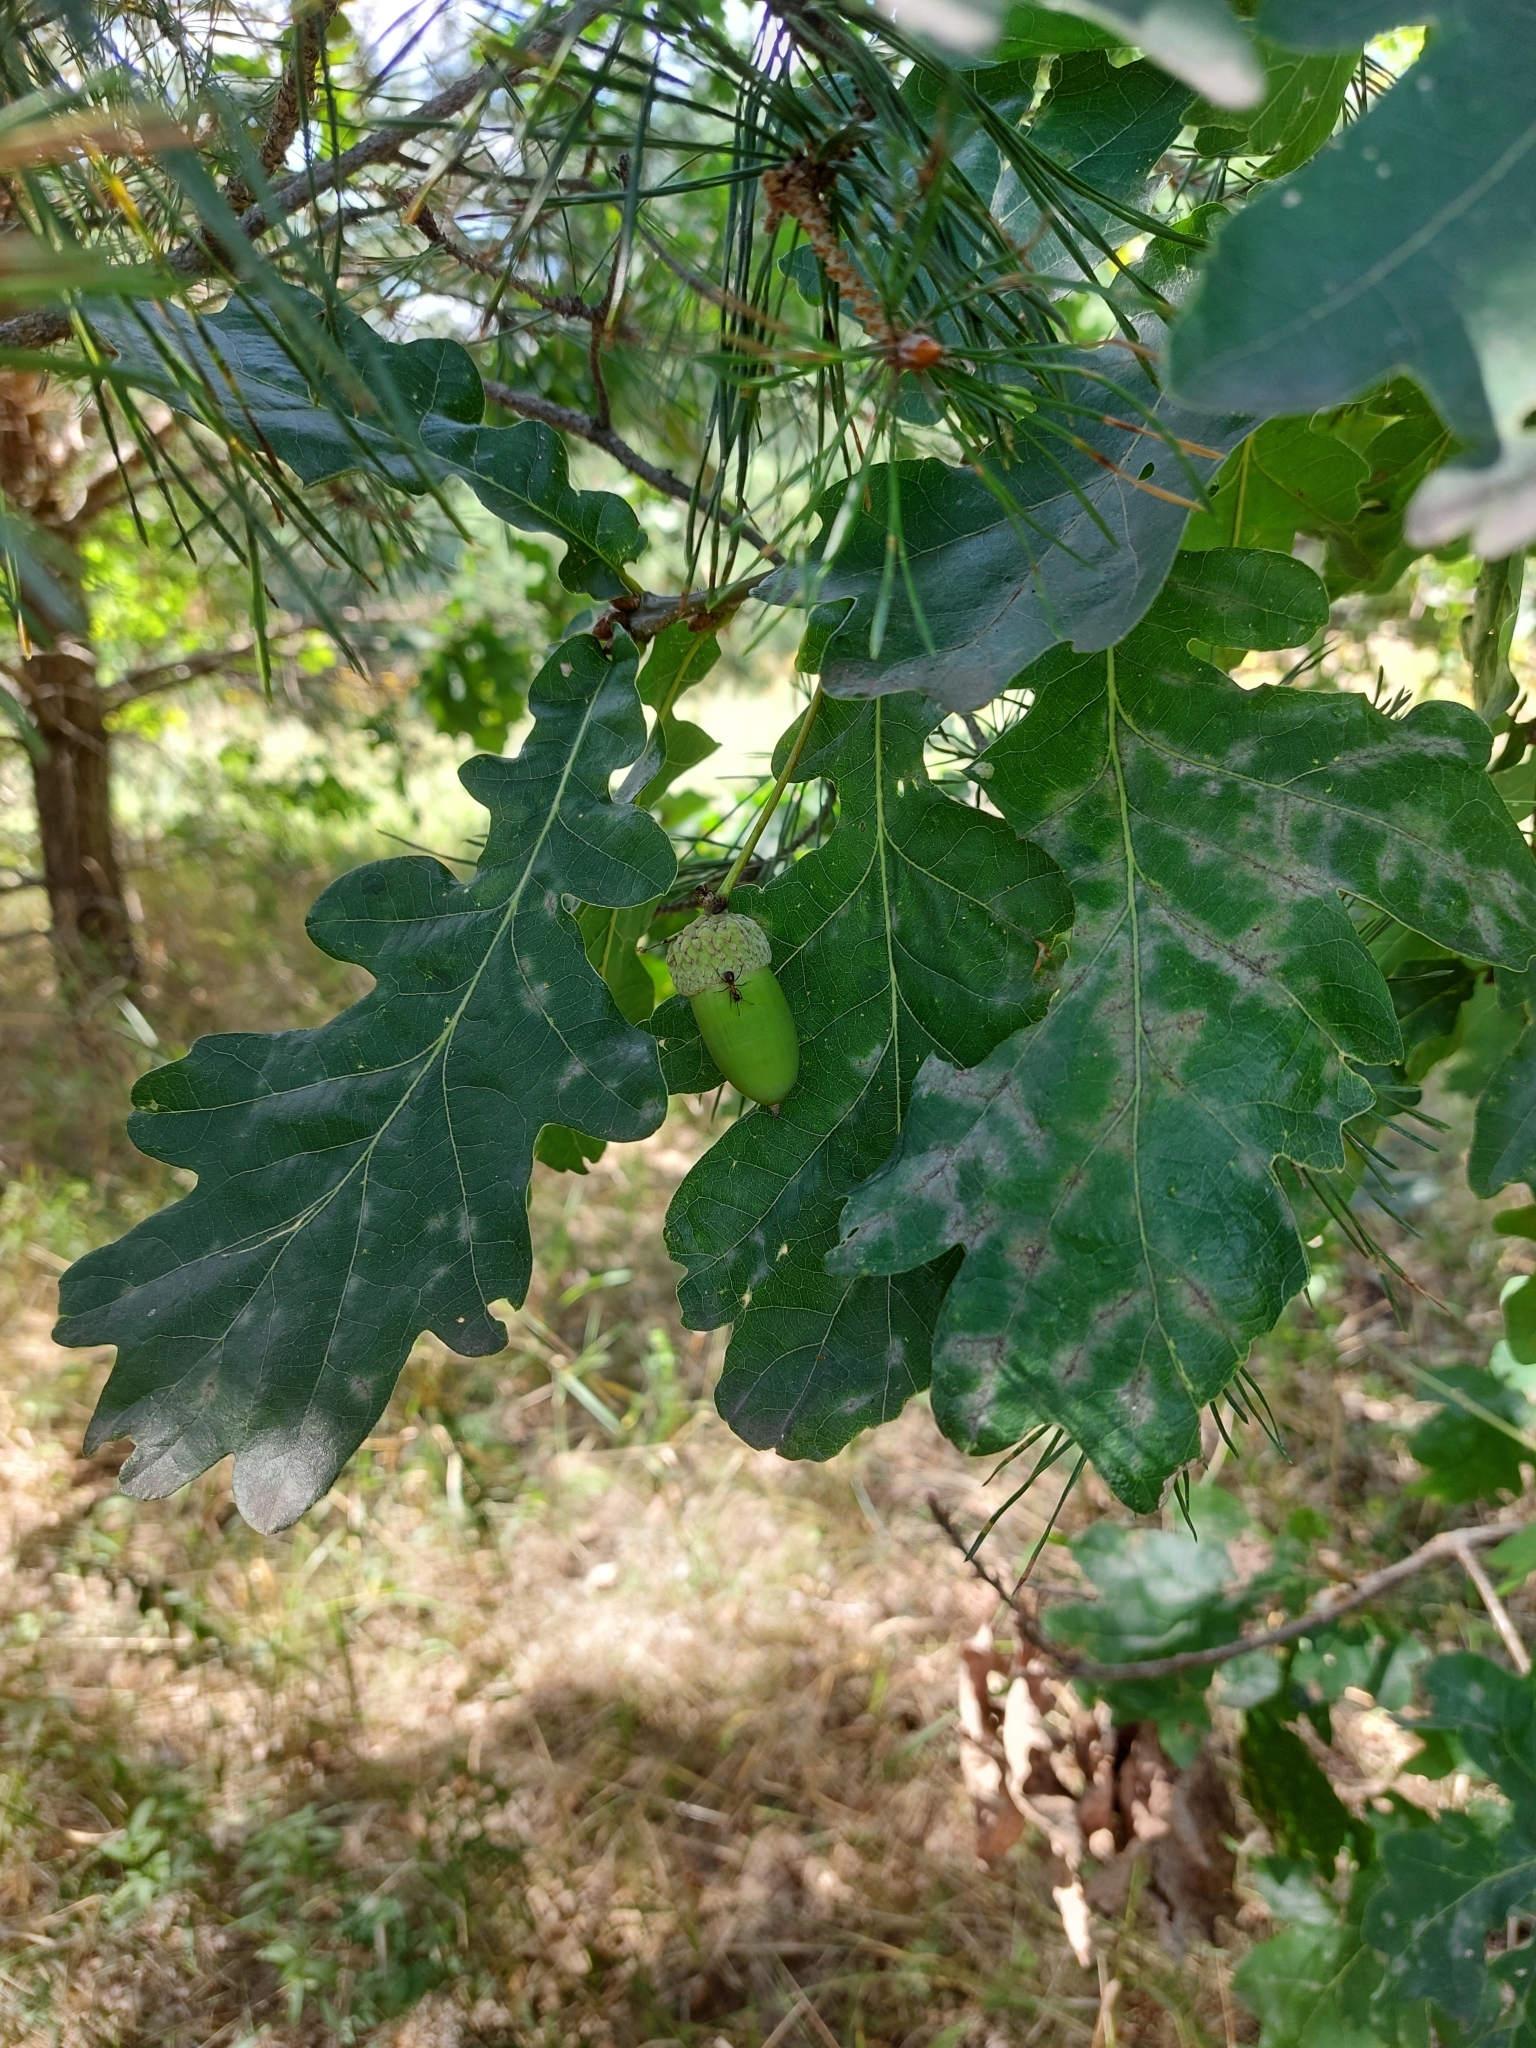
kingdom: Plantae
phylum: Tracheophyta
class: Magnoliopsida
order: Fagales
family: Fagaceae
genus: Quercus
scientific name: Quercus robur
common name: Pedunculate oak
